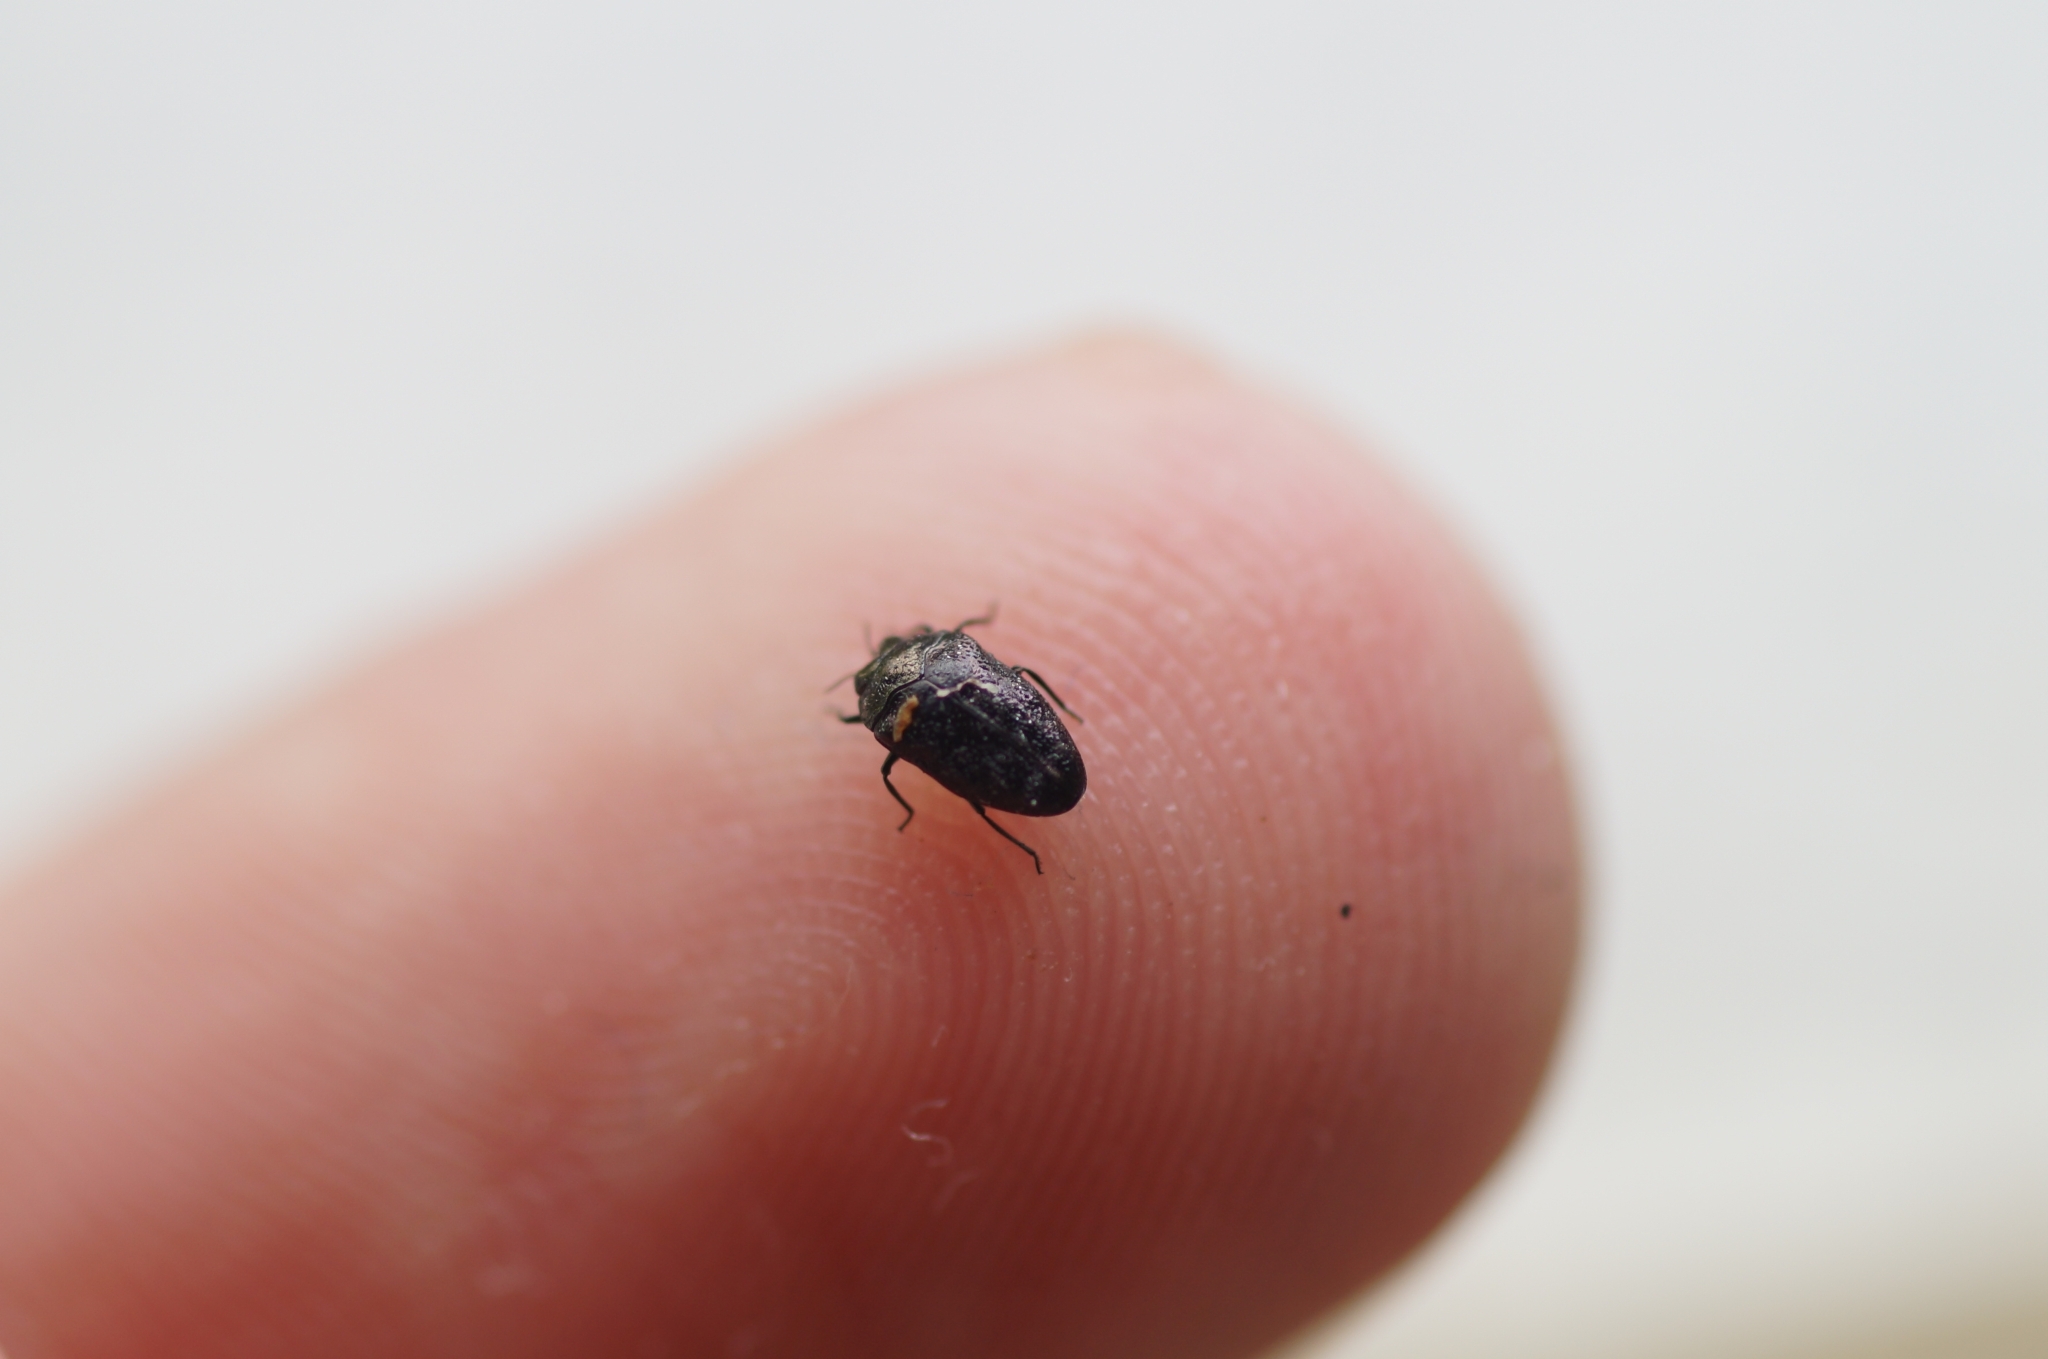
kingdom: Animalia
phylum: Arthropoda
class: Insecta
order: Coleoptera
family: Buprestidae
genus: Trachys
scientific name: Trachys minutus
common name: Metallic wood-boring beetle
